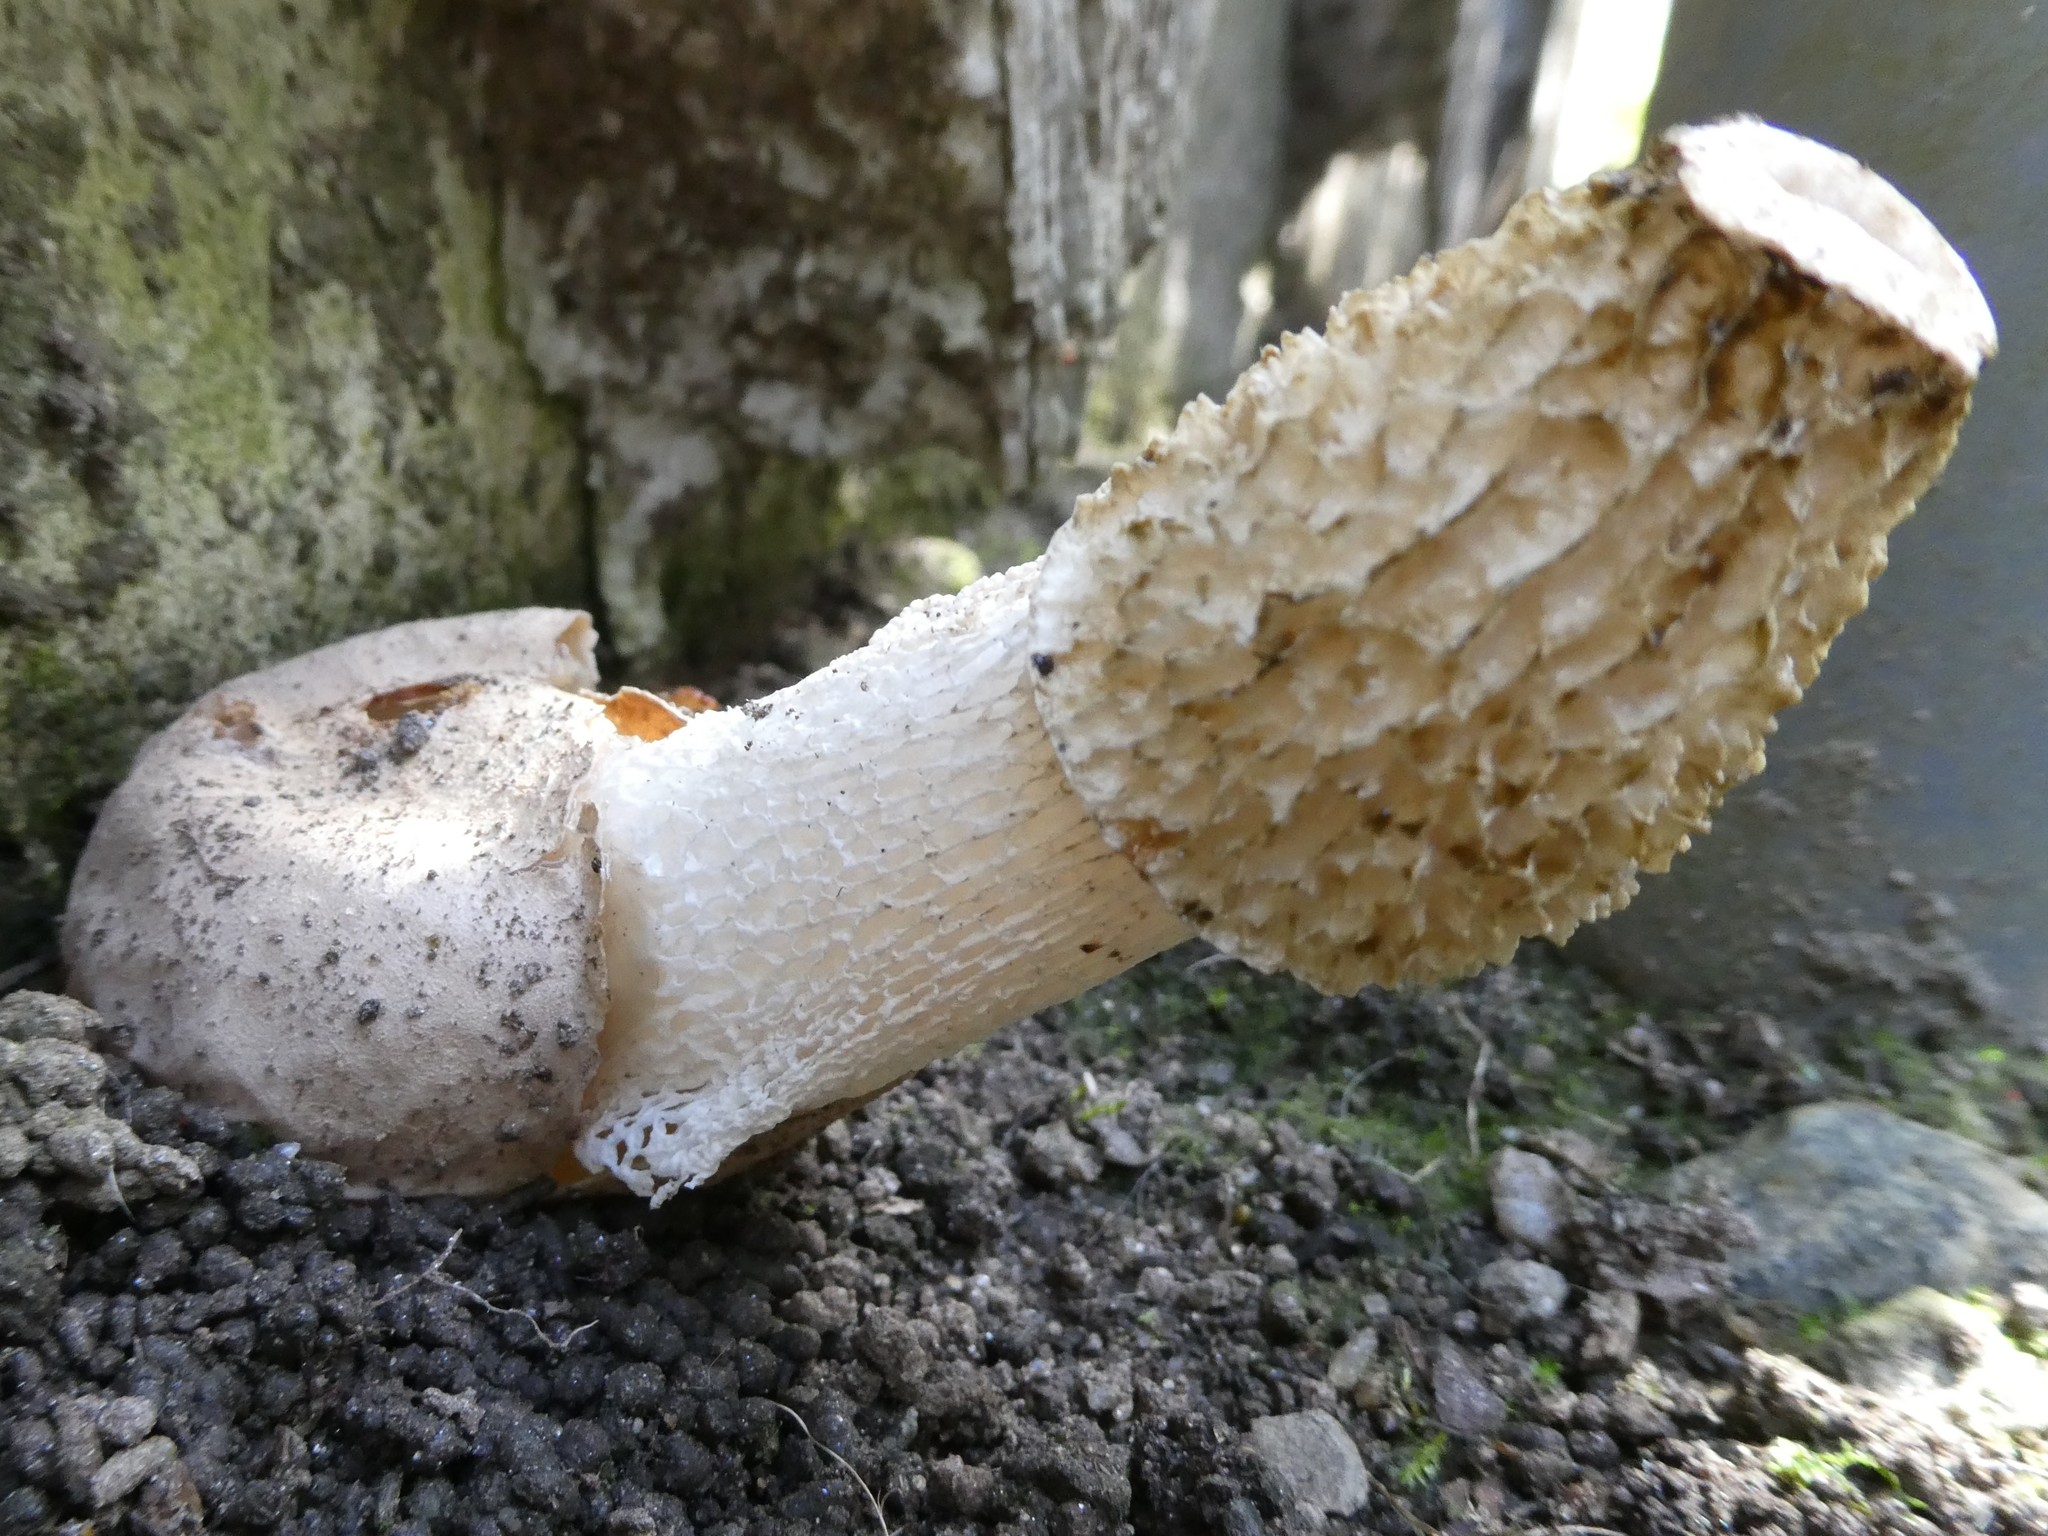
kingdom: Fungi
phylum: Basidiomycota
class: Agaricomycetes
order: Phallales
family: Phallaceae
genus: Phallus
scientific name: Phallus indusiatus
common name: Bridal veil stinkhorn
